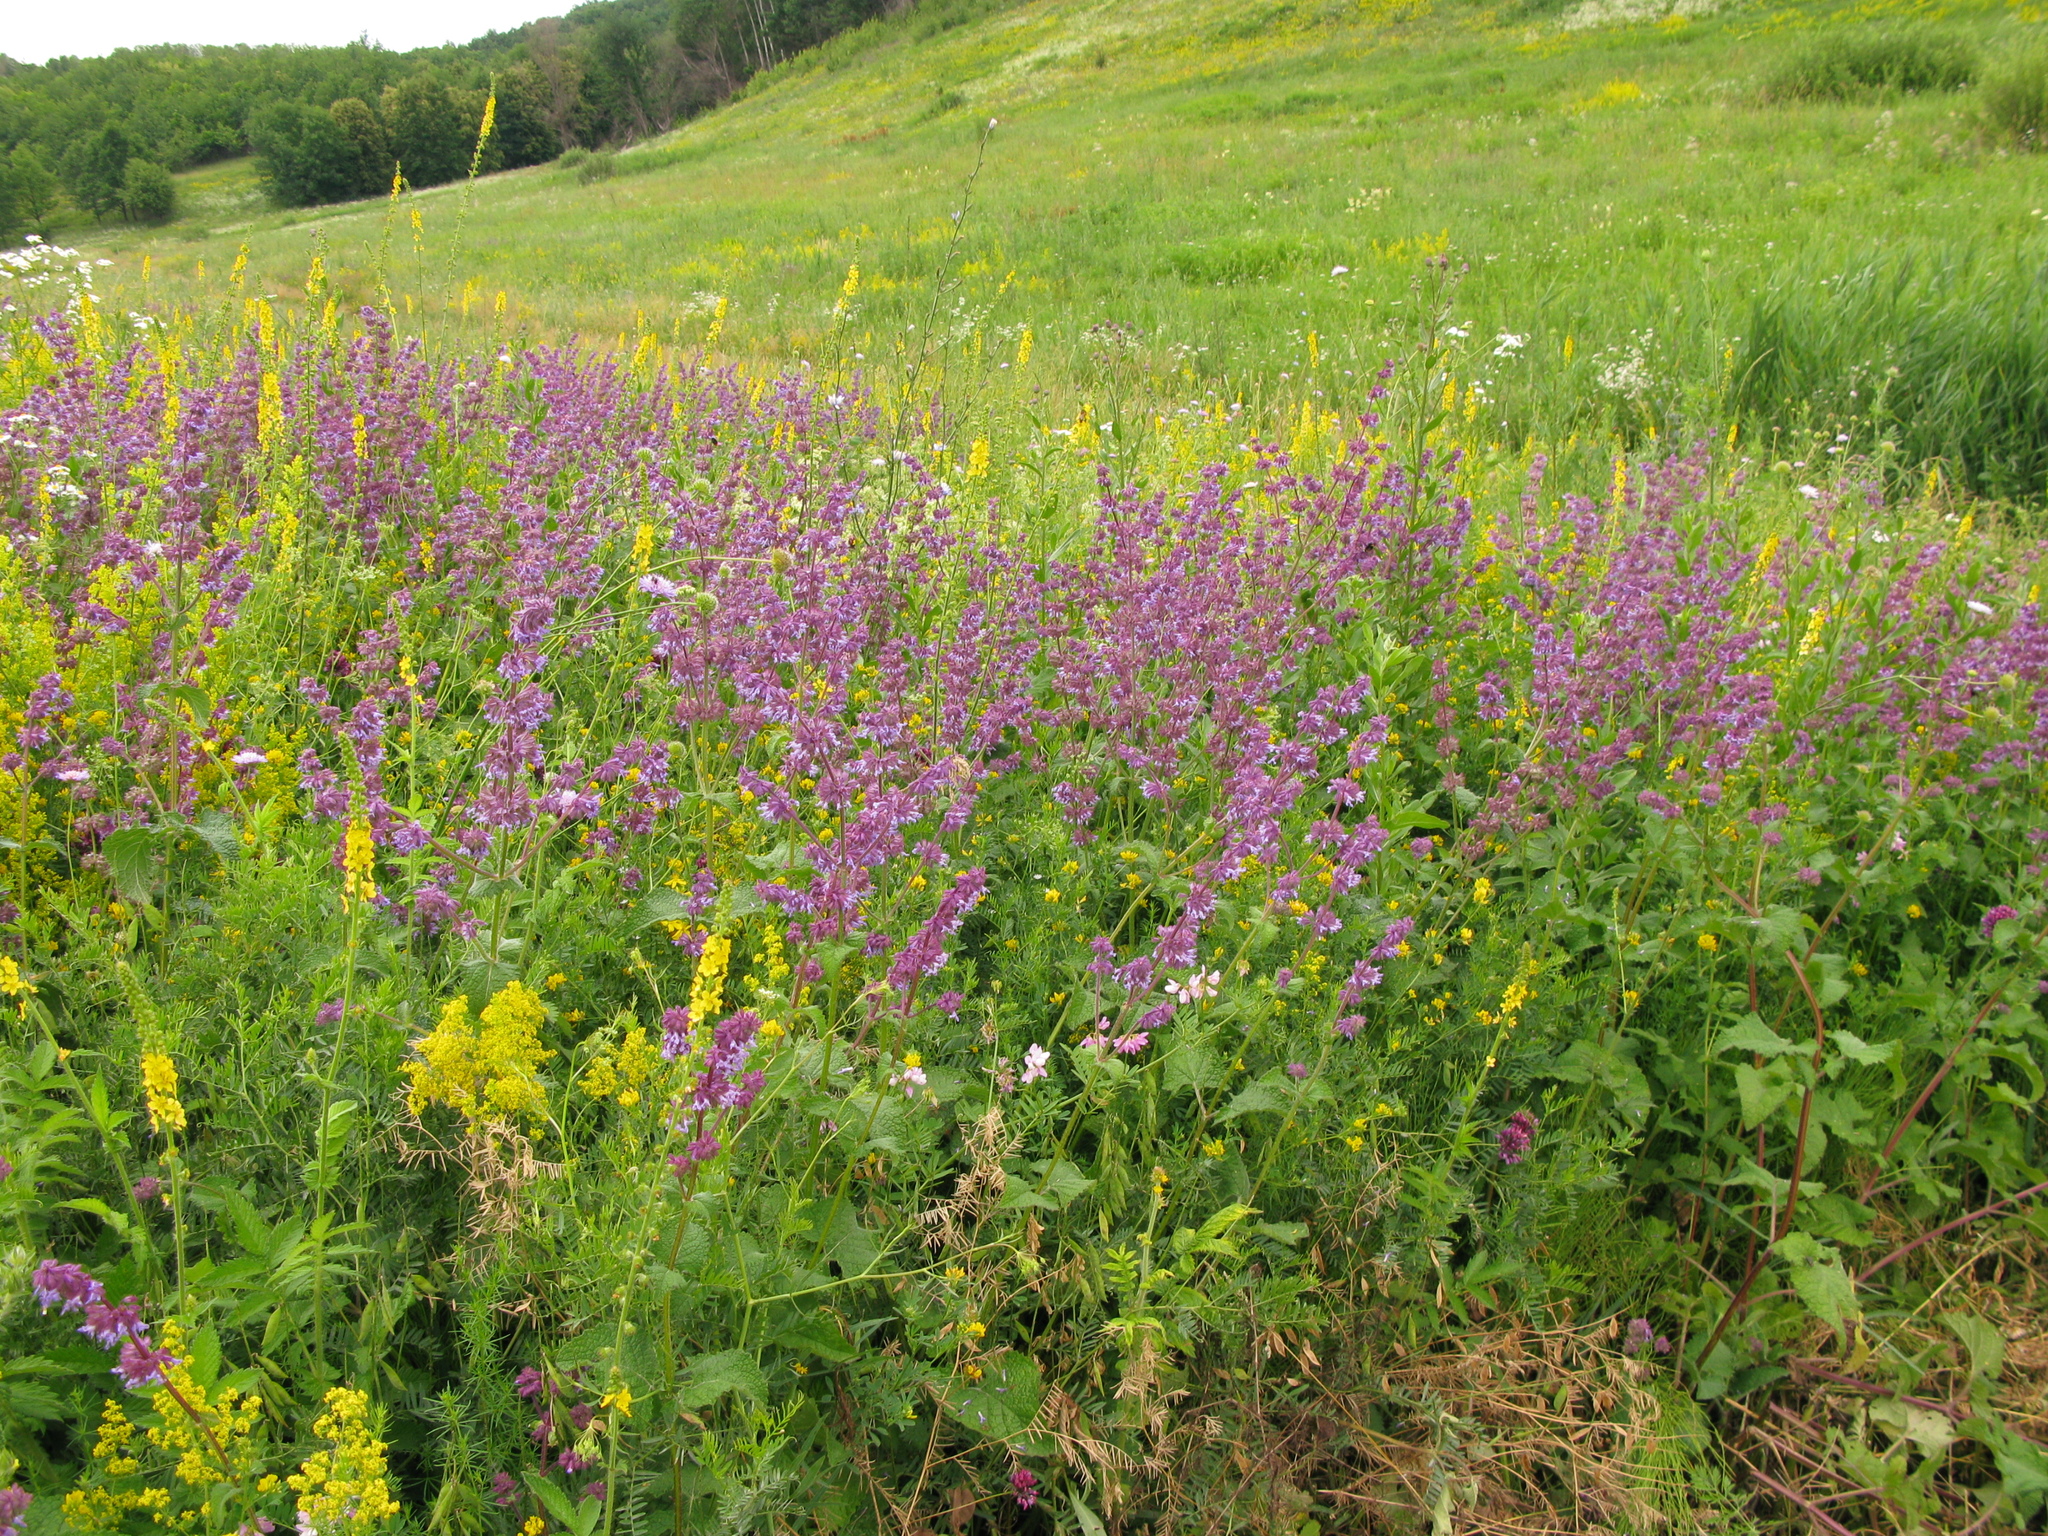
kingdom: Plantae
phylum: Tracheophyta
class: Magnoliopsida
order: Lamiales
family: Lamiaceae
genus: Salvia
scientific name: Salvia verticillata
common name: Whorled clary
